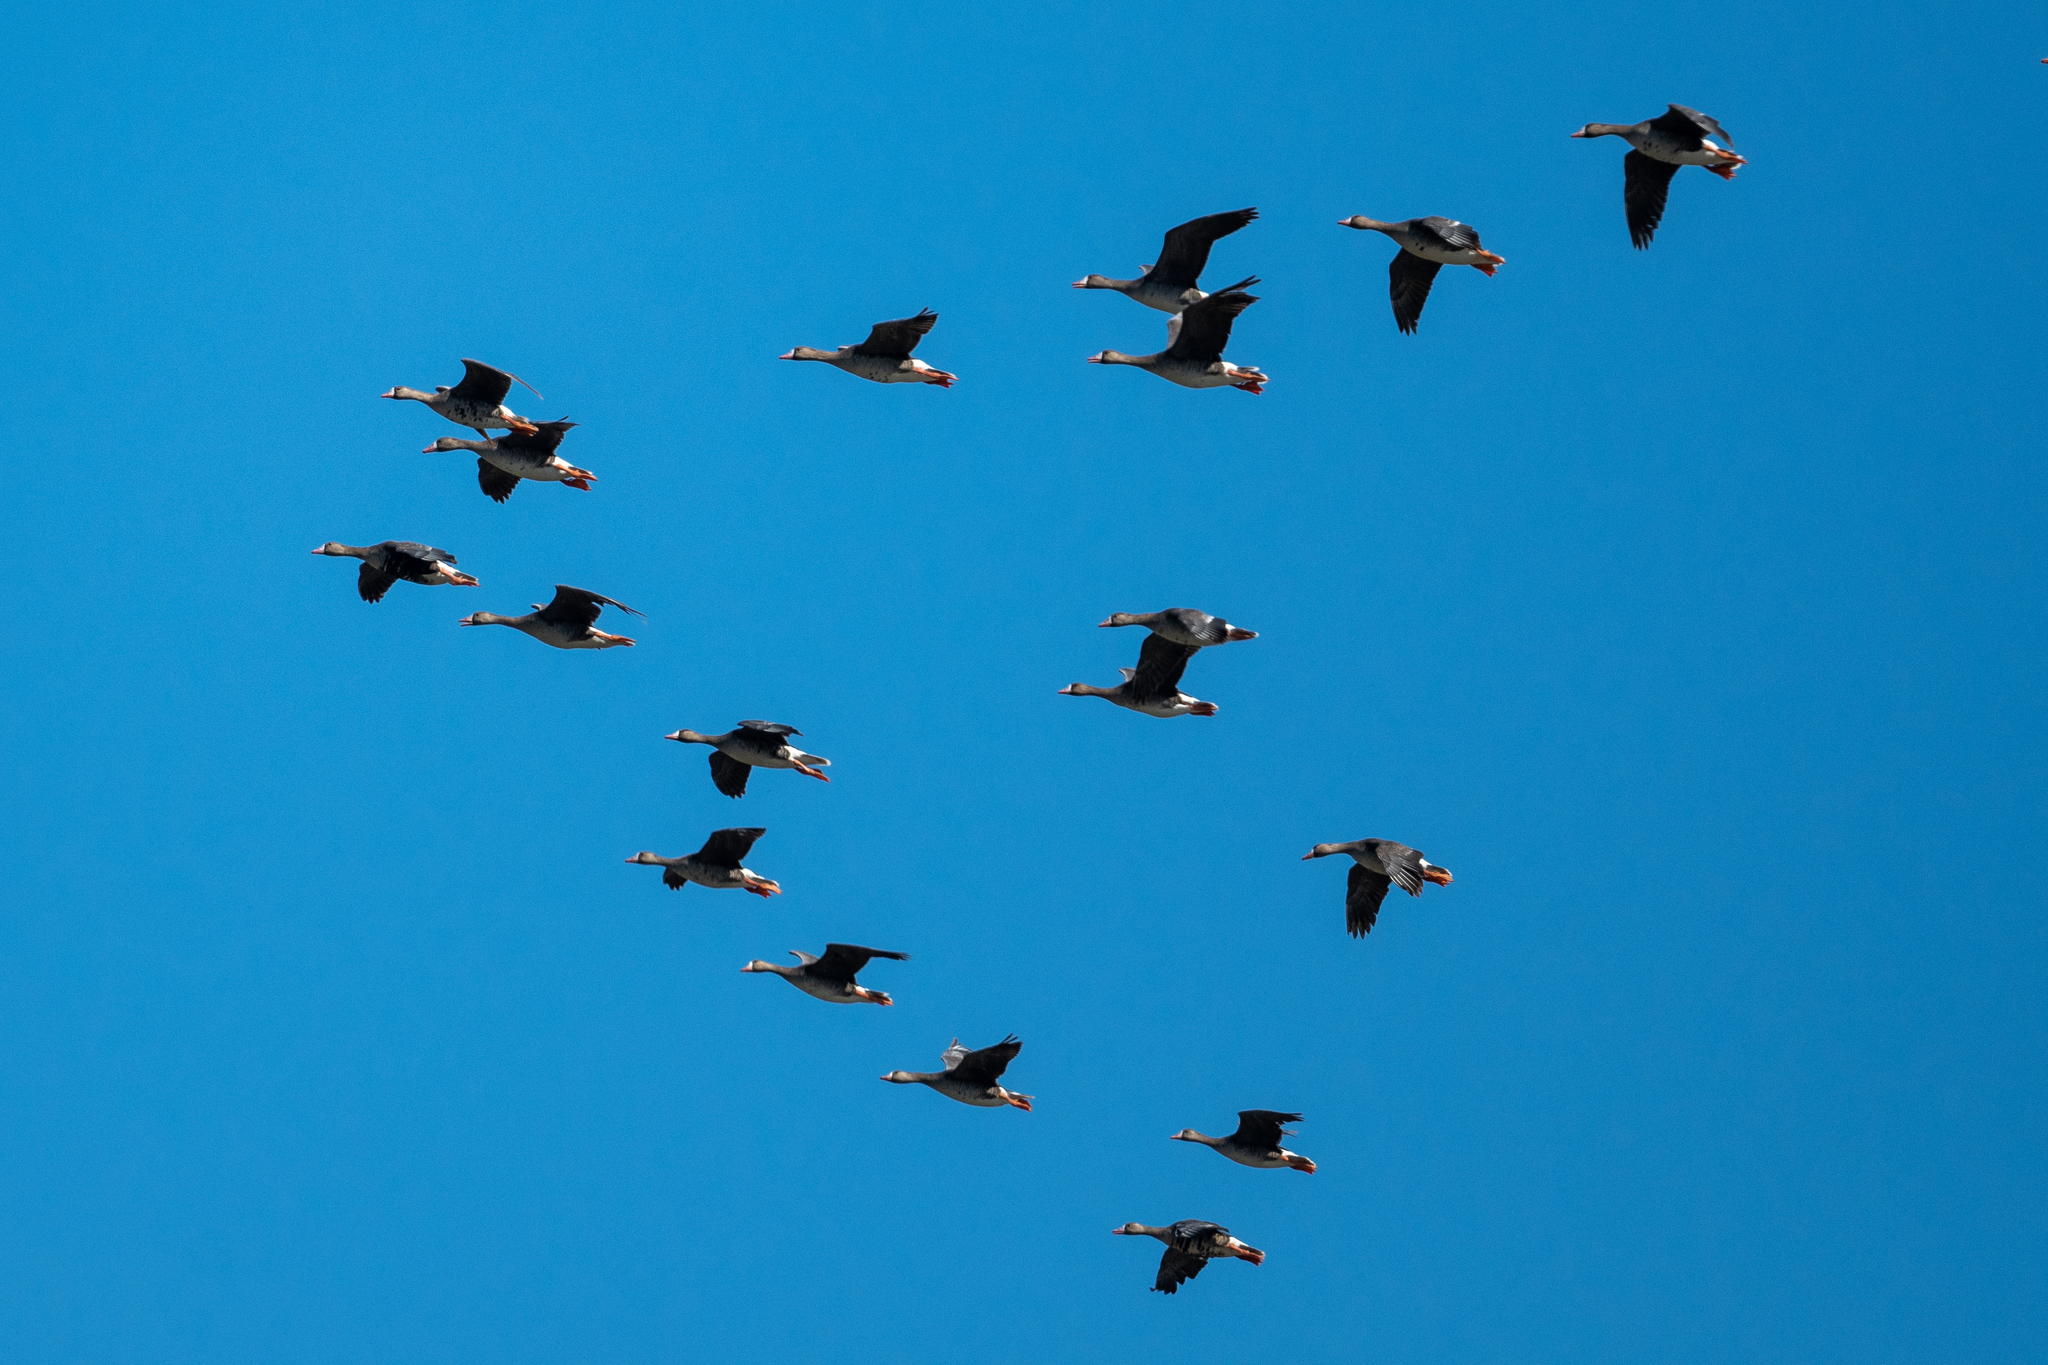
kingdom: Animalia
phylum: Chordata
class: Aves
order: Anseriformes
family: Anatidae
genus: Anser
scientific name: Anser albifrons
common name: Greater white-fronted goose
